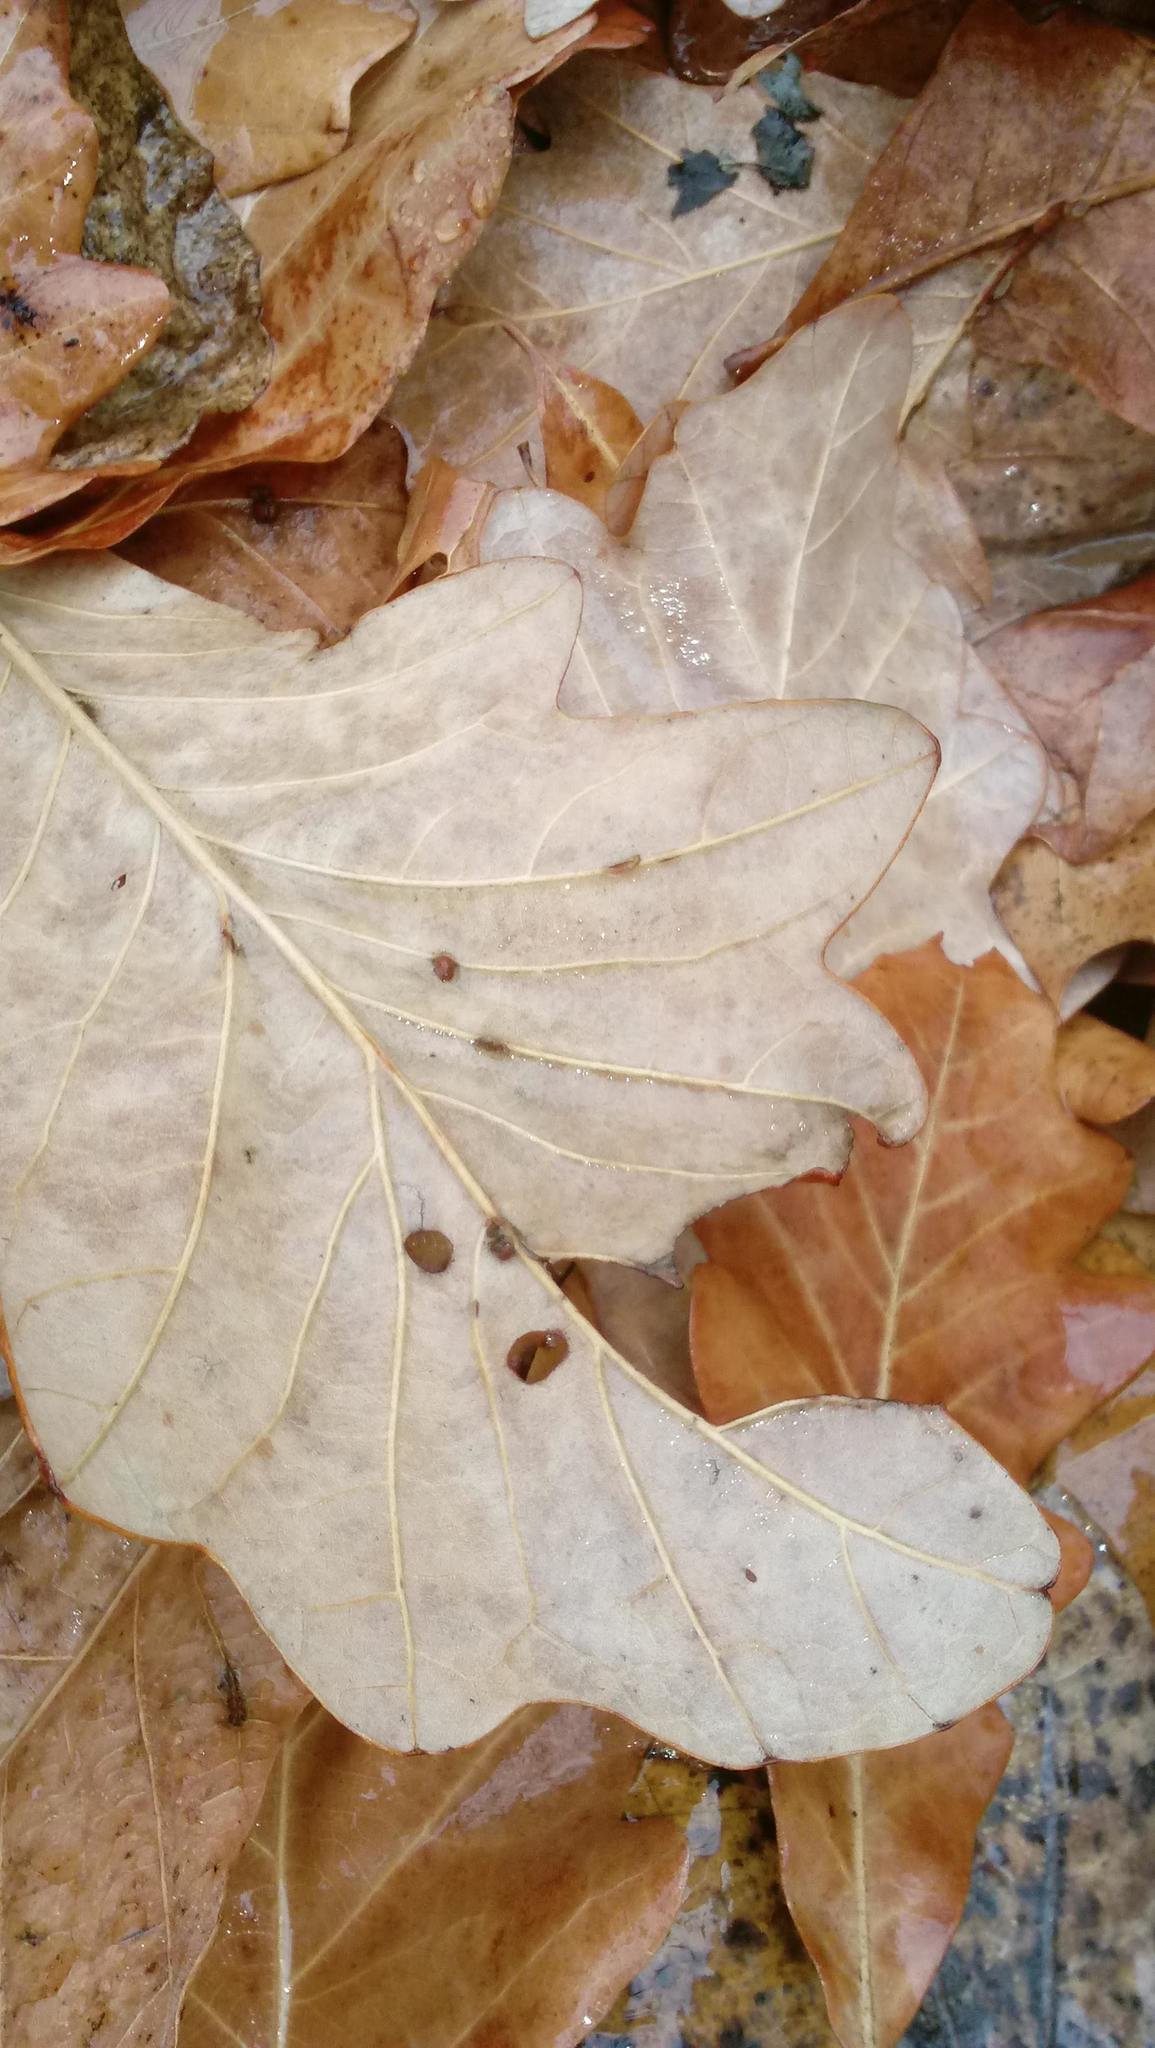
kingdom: Animalia
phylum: Arthropoda
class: Insecta
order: Hymenoptera
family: Cynipidae
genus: Andricus
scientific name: Andricus Druon ignotum
